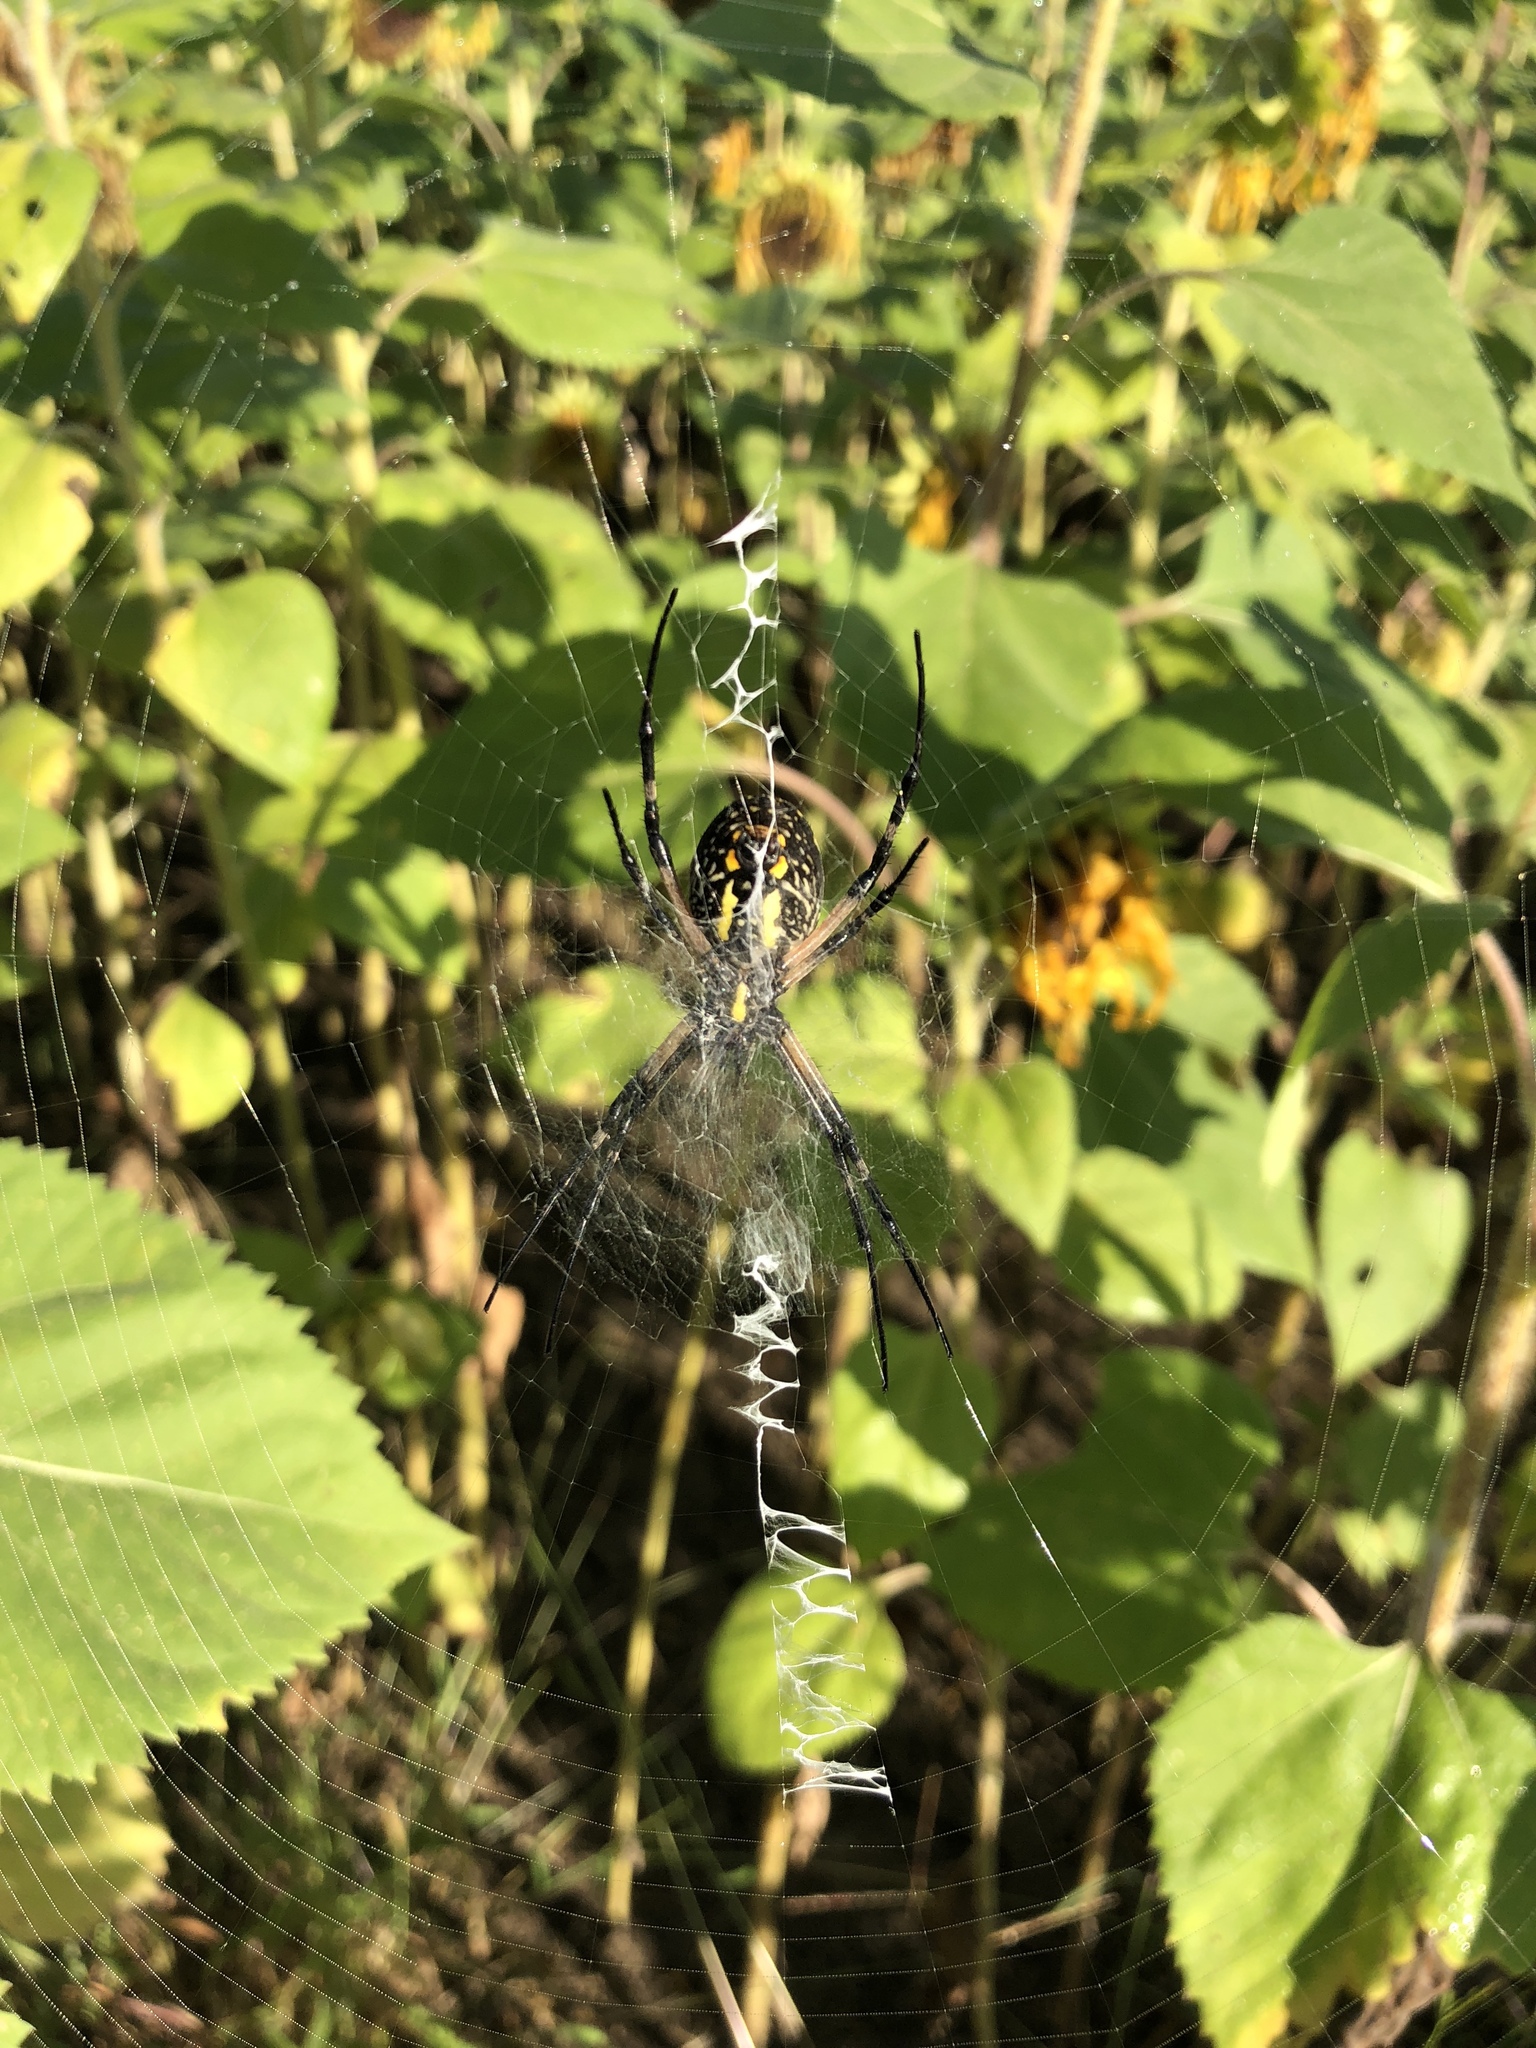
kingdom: Animalia
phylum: Arthropoda
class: Arachnida
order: Araneae
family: Araneidae
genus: Argiope
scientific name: Argiope aurantia
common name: Orb weavers
